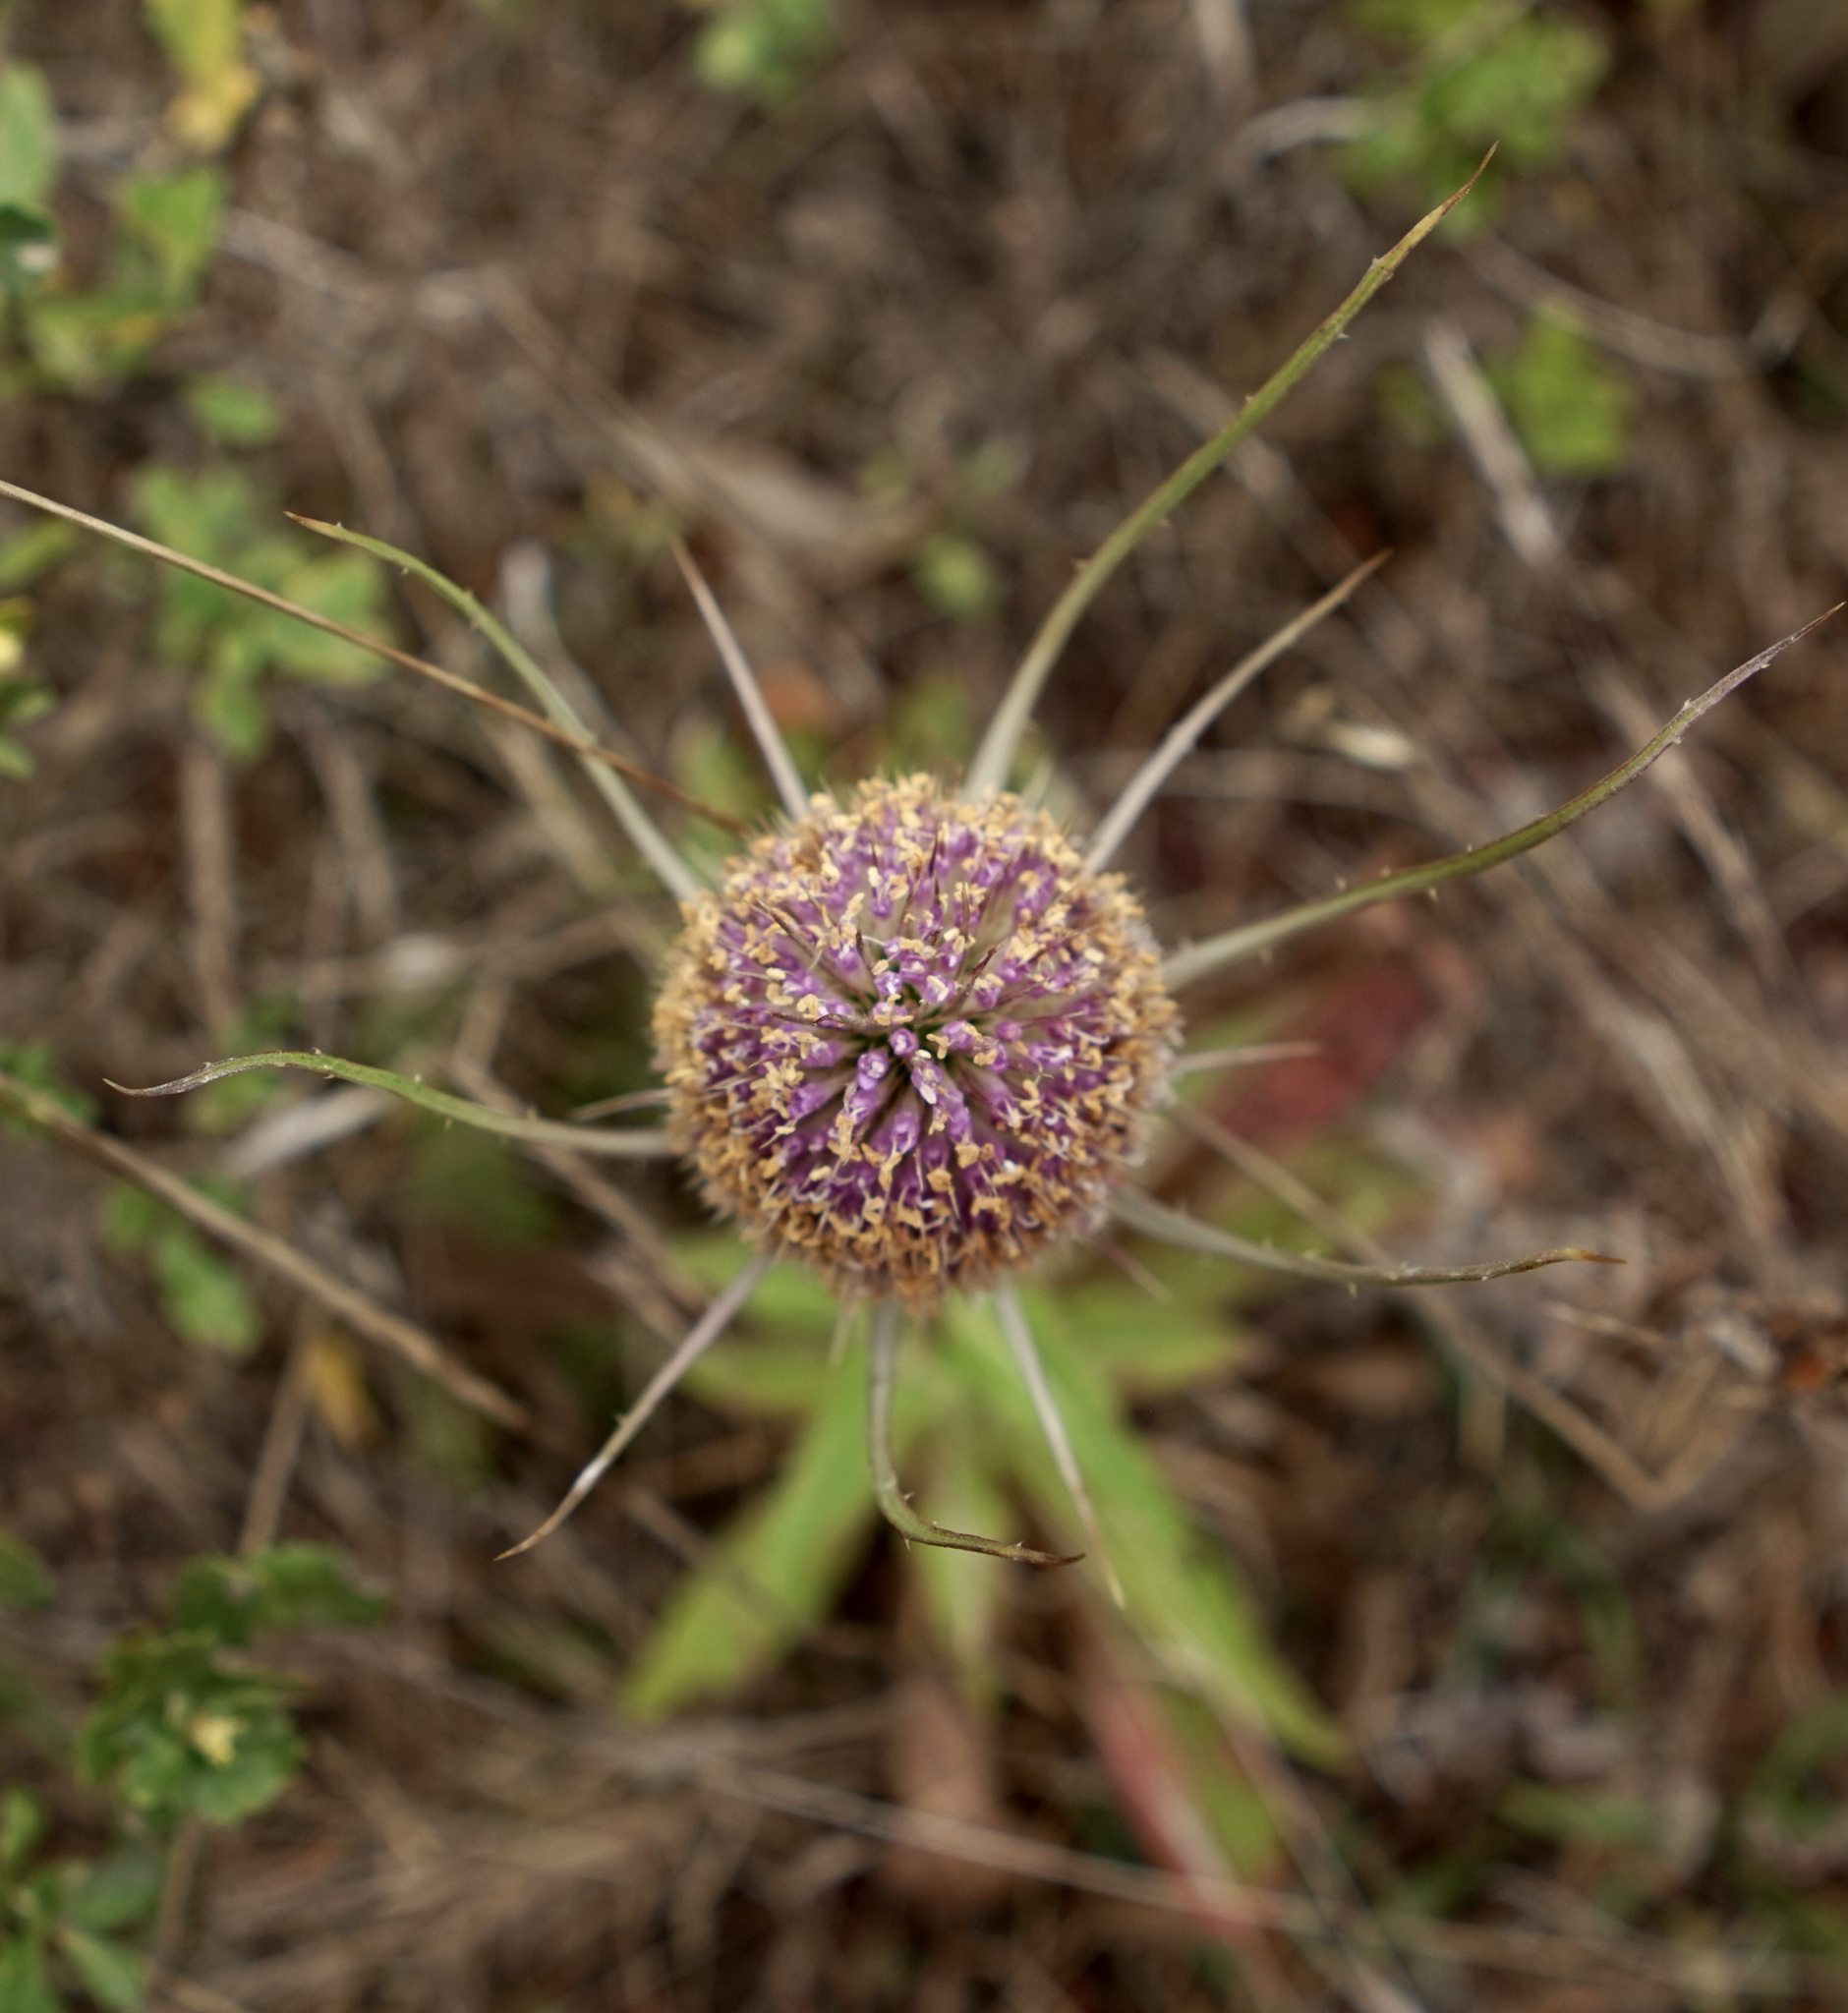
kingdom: Plantae
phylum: Tracheophyta
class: Magnoliopsida
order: Dipsacales
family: Caprifoliaceae
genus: Dipsacus
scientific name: Dipsacus fullonum
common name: Teasel
